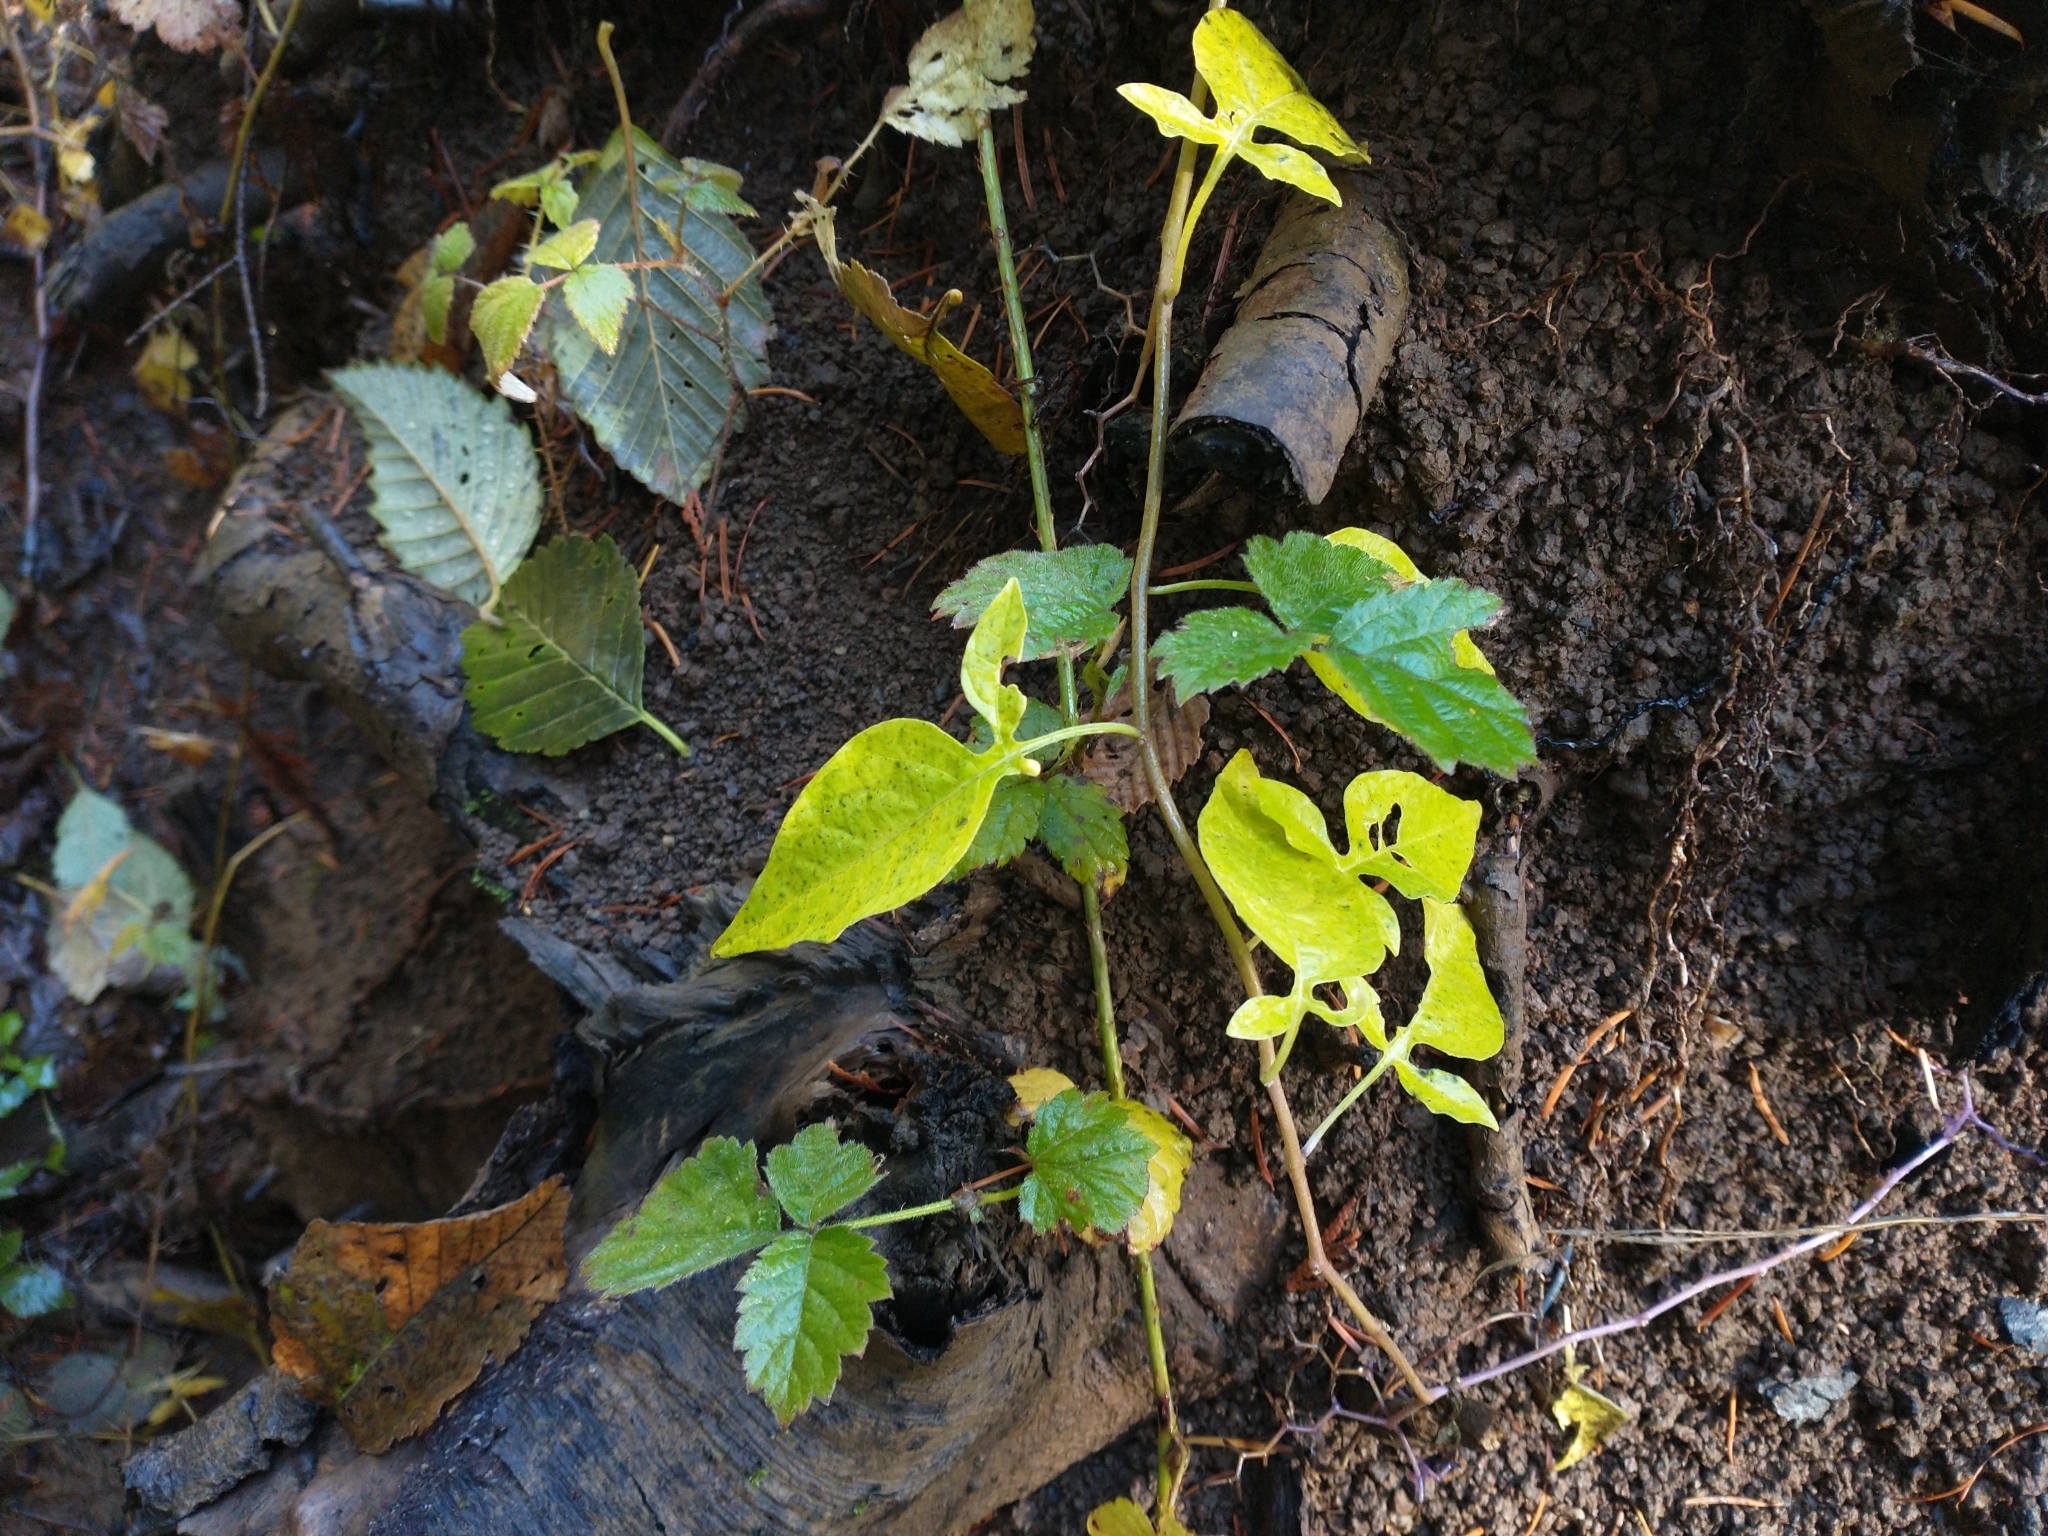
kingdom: Plantae
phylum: Tracheophyta
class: Magnoliopsida
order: Solanales
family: Solanaceae
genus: Solanum
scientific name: Solanum dulcamara
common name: Climbing nightshade
